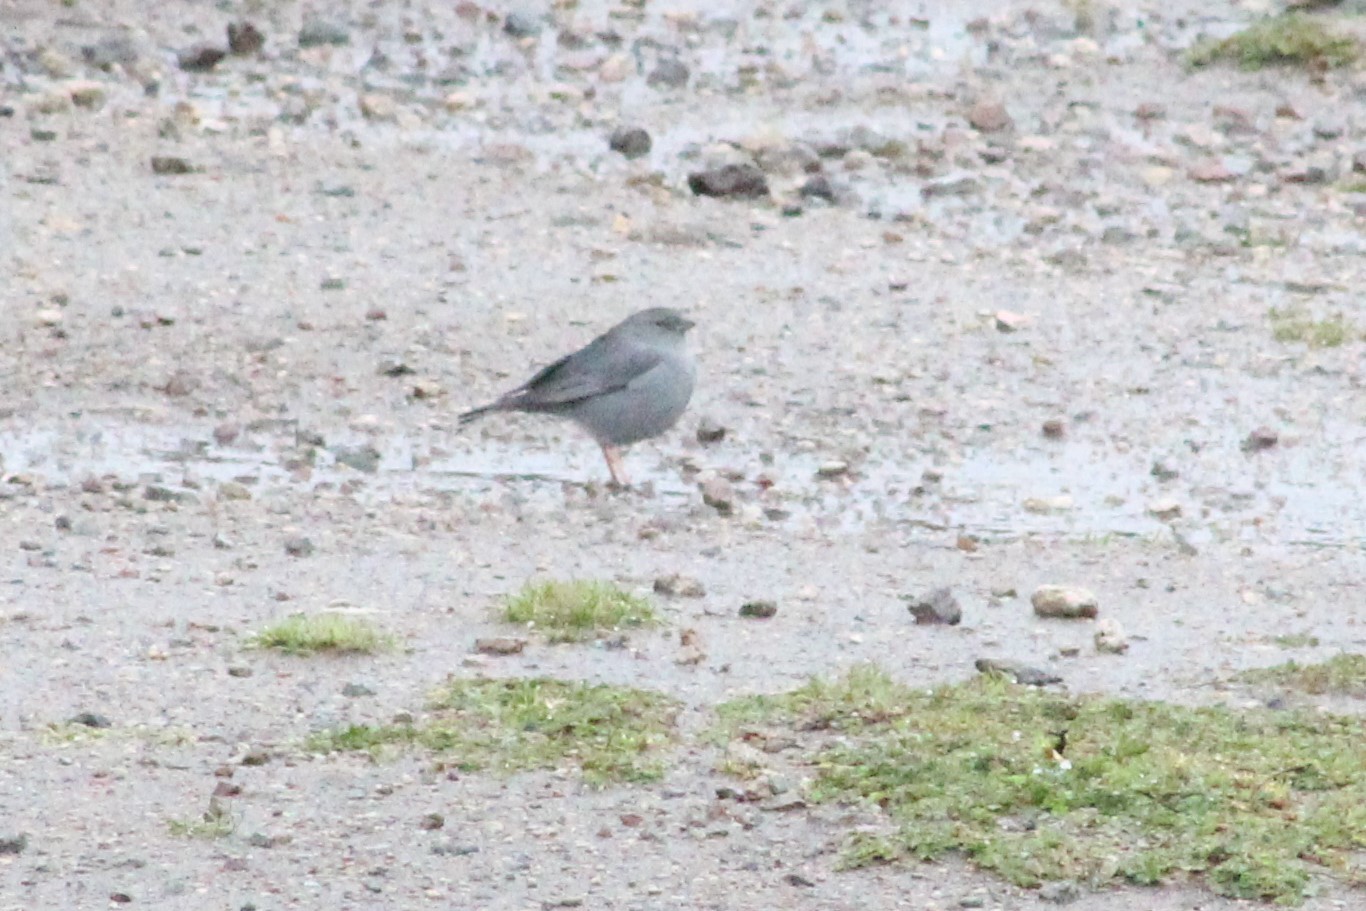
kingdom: Animalia
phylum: Chordata
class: Aves
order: Passeriformes
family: Thraupidae
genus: Geospizopsis
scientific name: Geospizopsis unicolor
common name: Plumbeous sierra-finch
